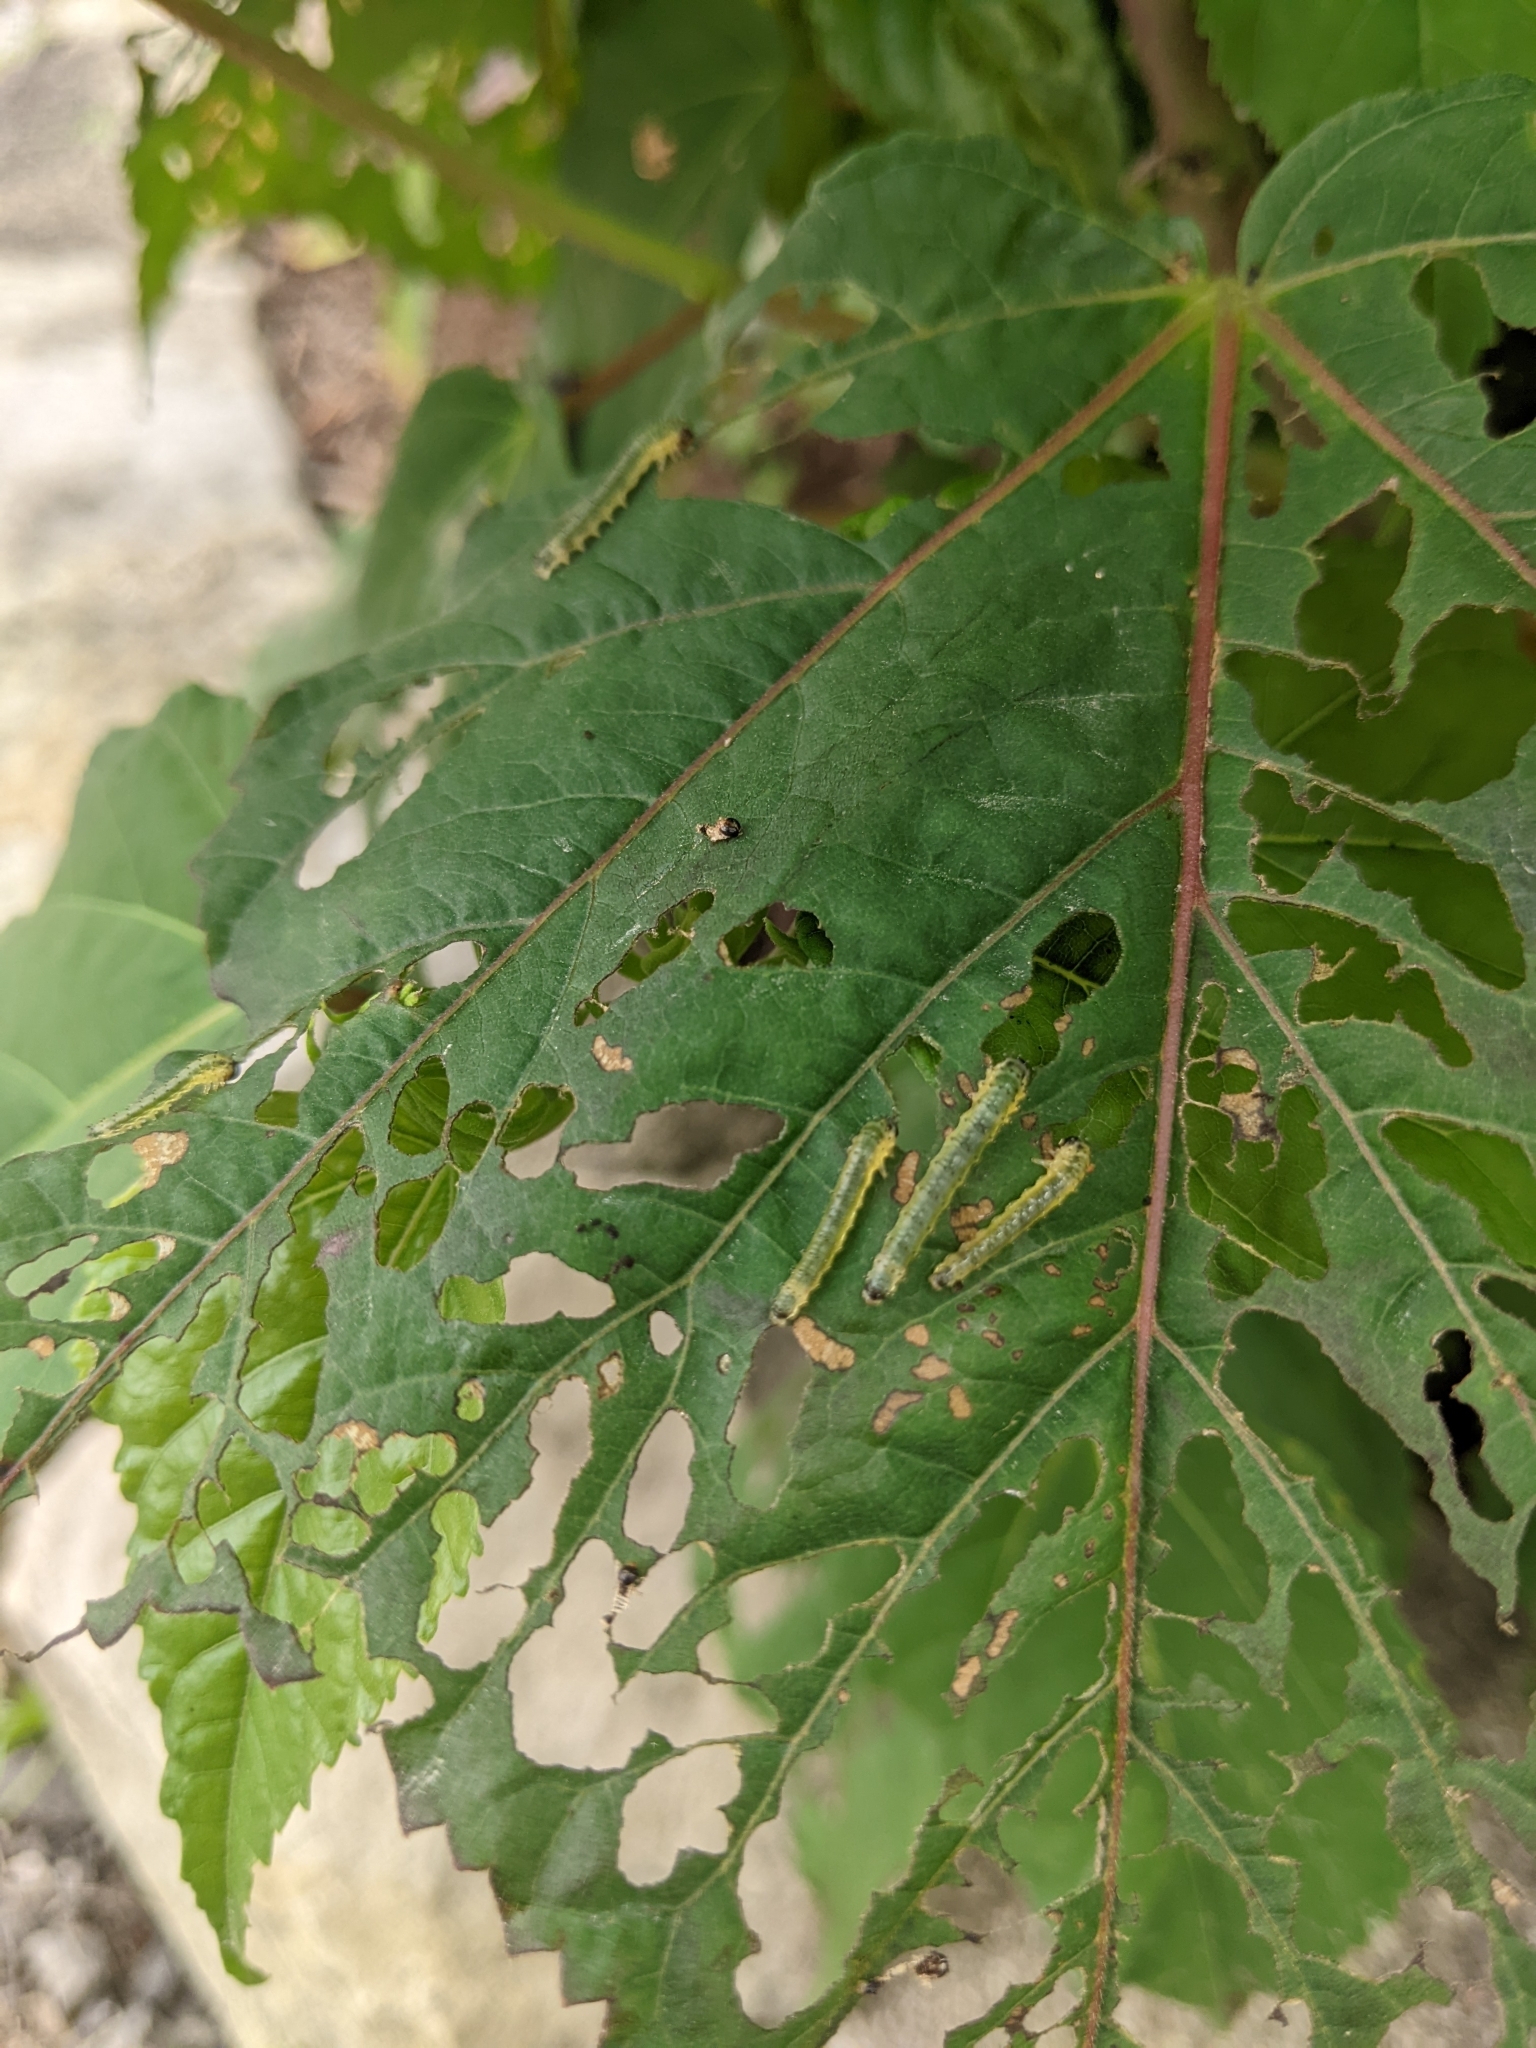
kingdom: Animalia
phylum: Arthropoda
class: Insecta
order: Hymenoptera
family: Argidae
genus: Atomacera
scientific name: Atomacera
